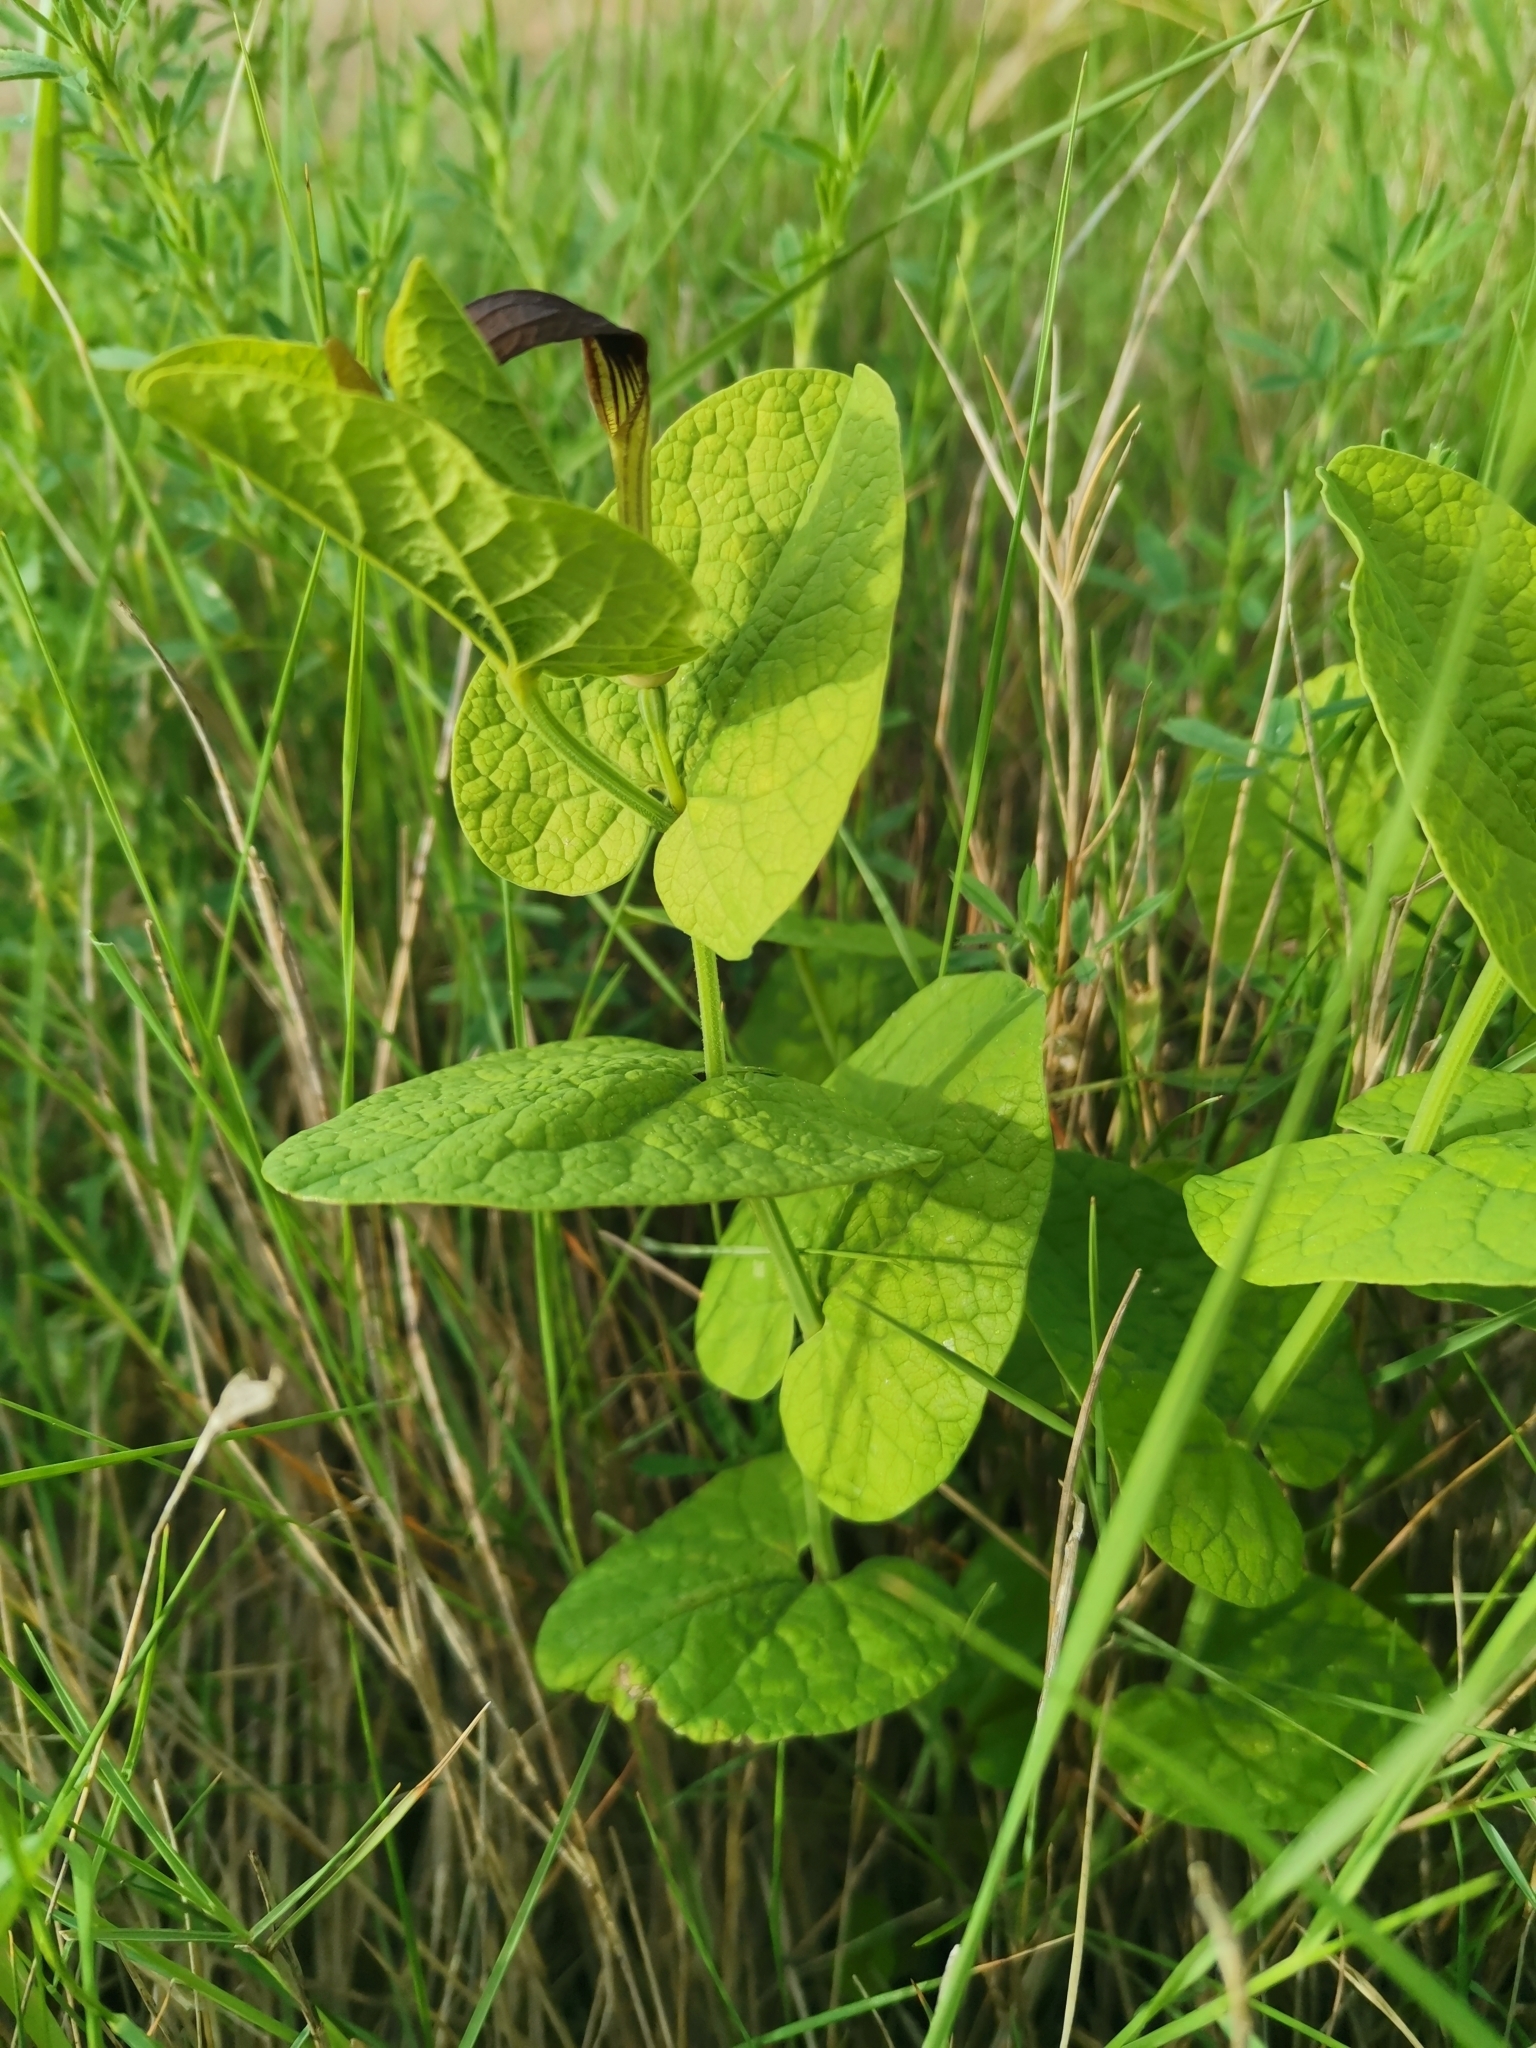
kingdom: Plantae
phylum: Tracheophyta
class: Magnoliopsida
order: Piperales
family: Aristolochiaceae
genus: Aristolochia
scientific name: Aristolochia rotunda
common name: Smearwort
